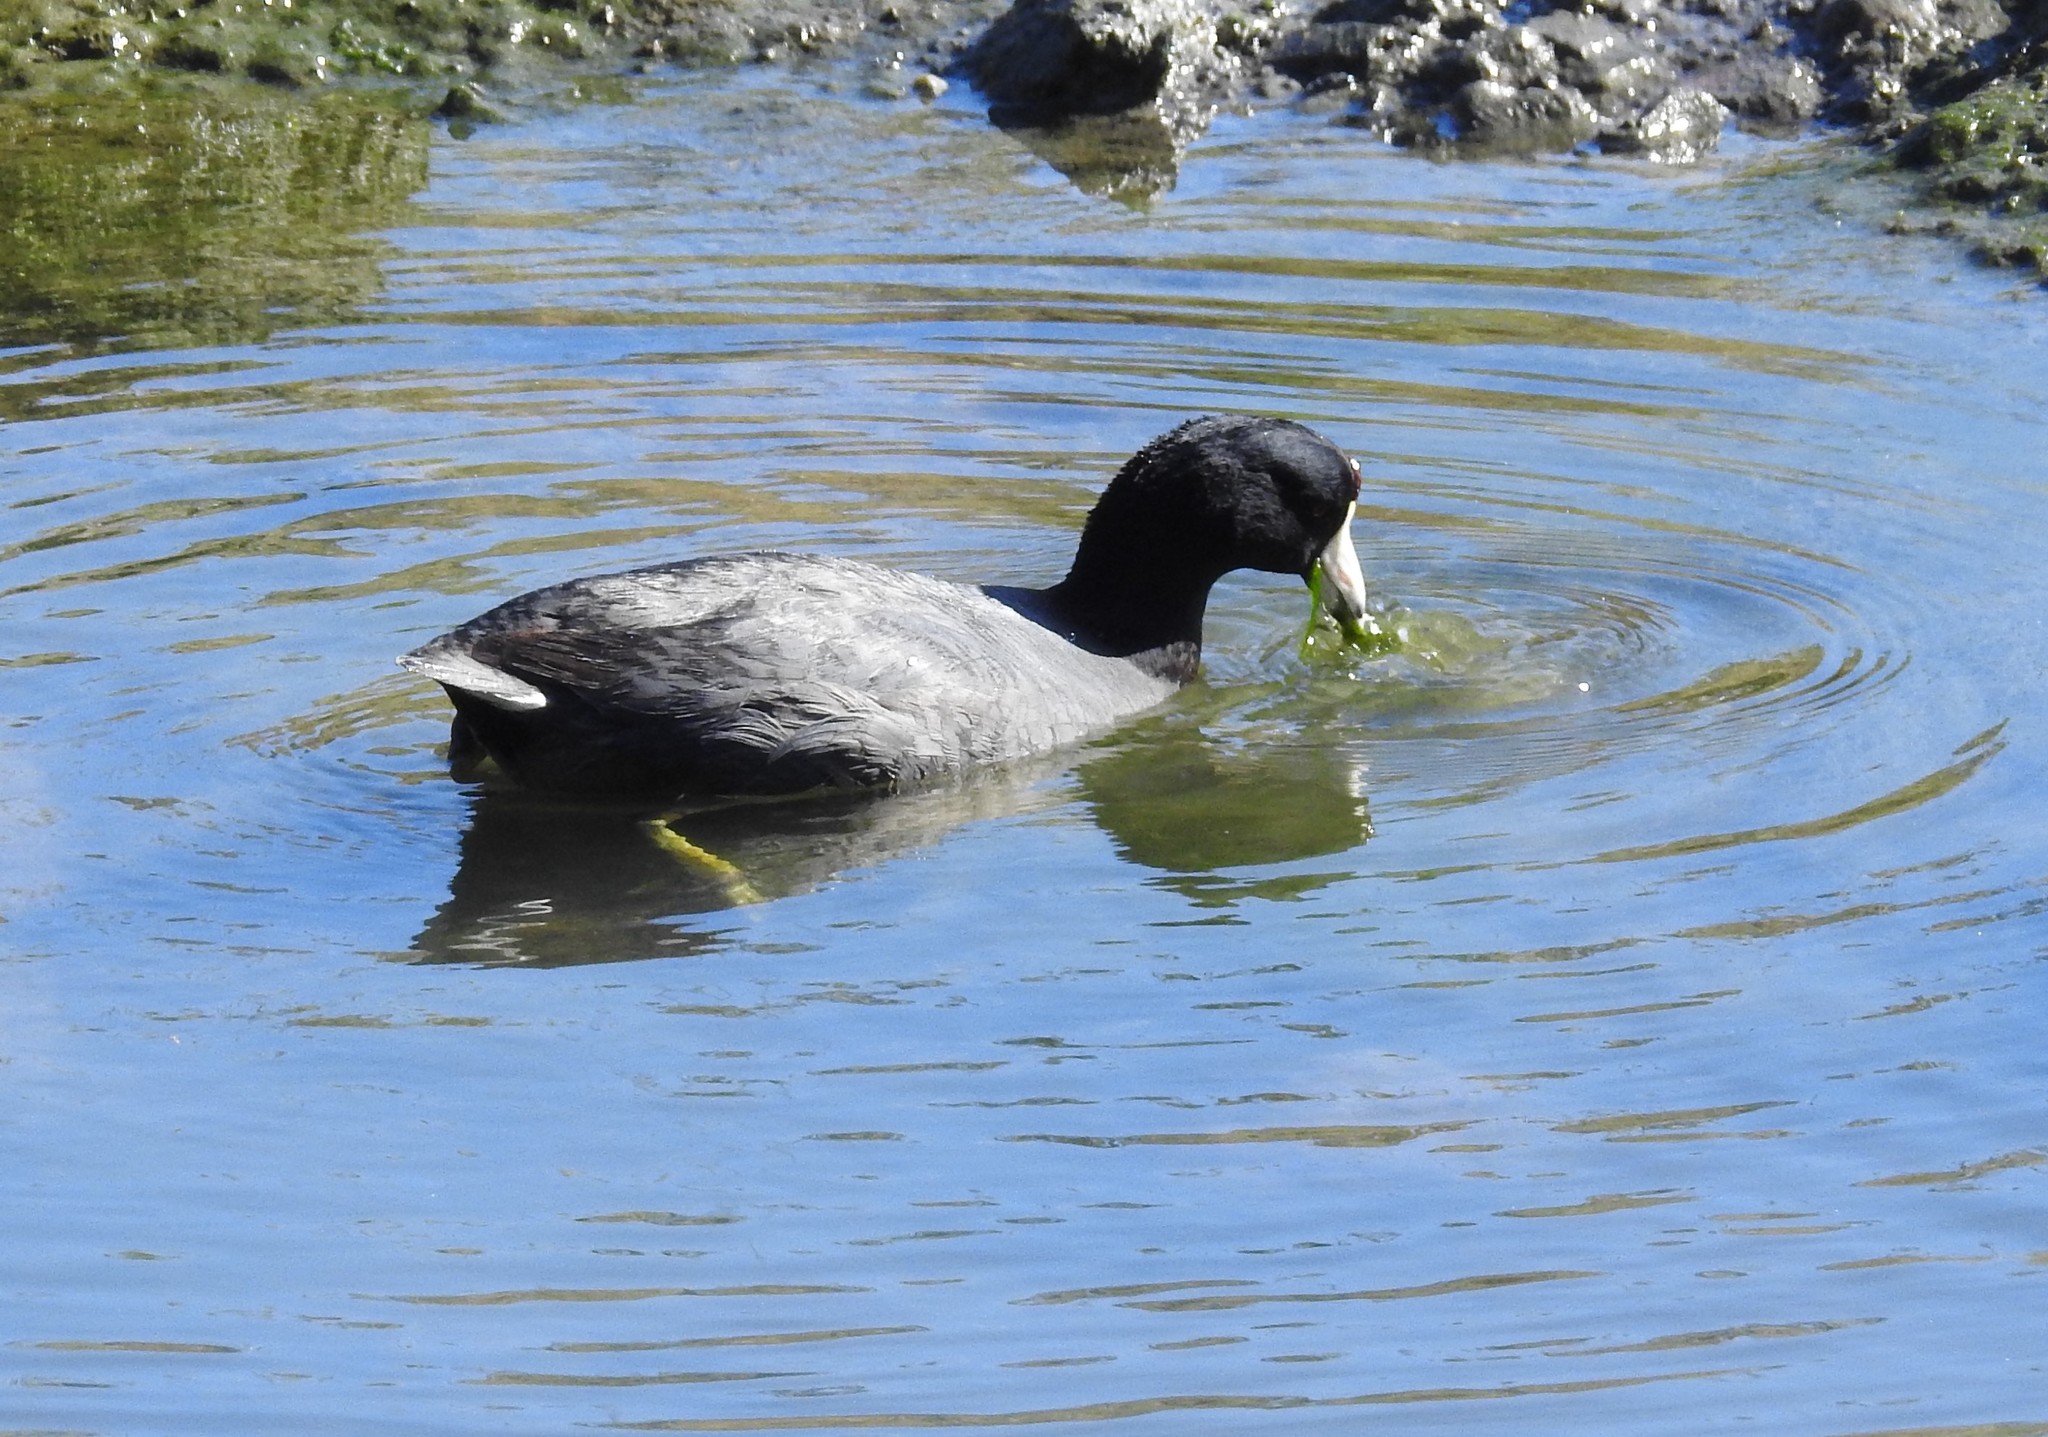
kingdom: Animalia
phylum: Chordata
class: Aves
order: Gruiformes
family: Rallidae
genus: Fulica
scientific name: Fulica americana
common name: American coot
